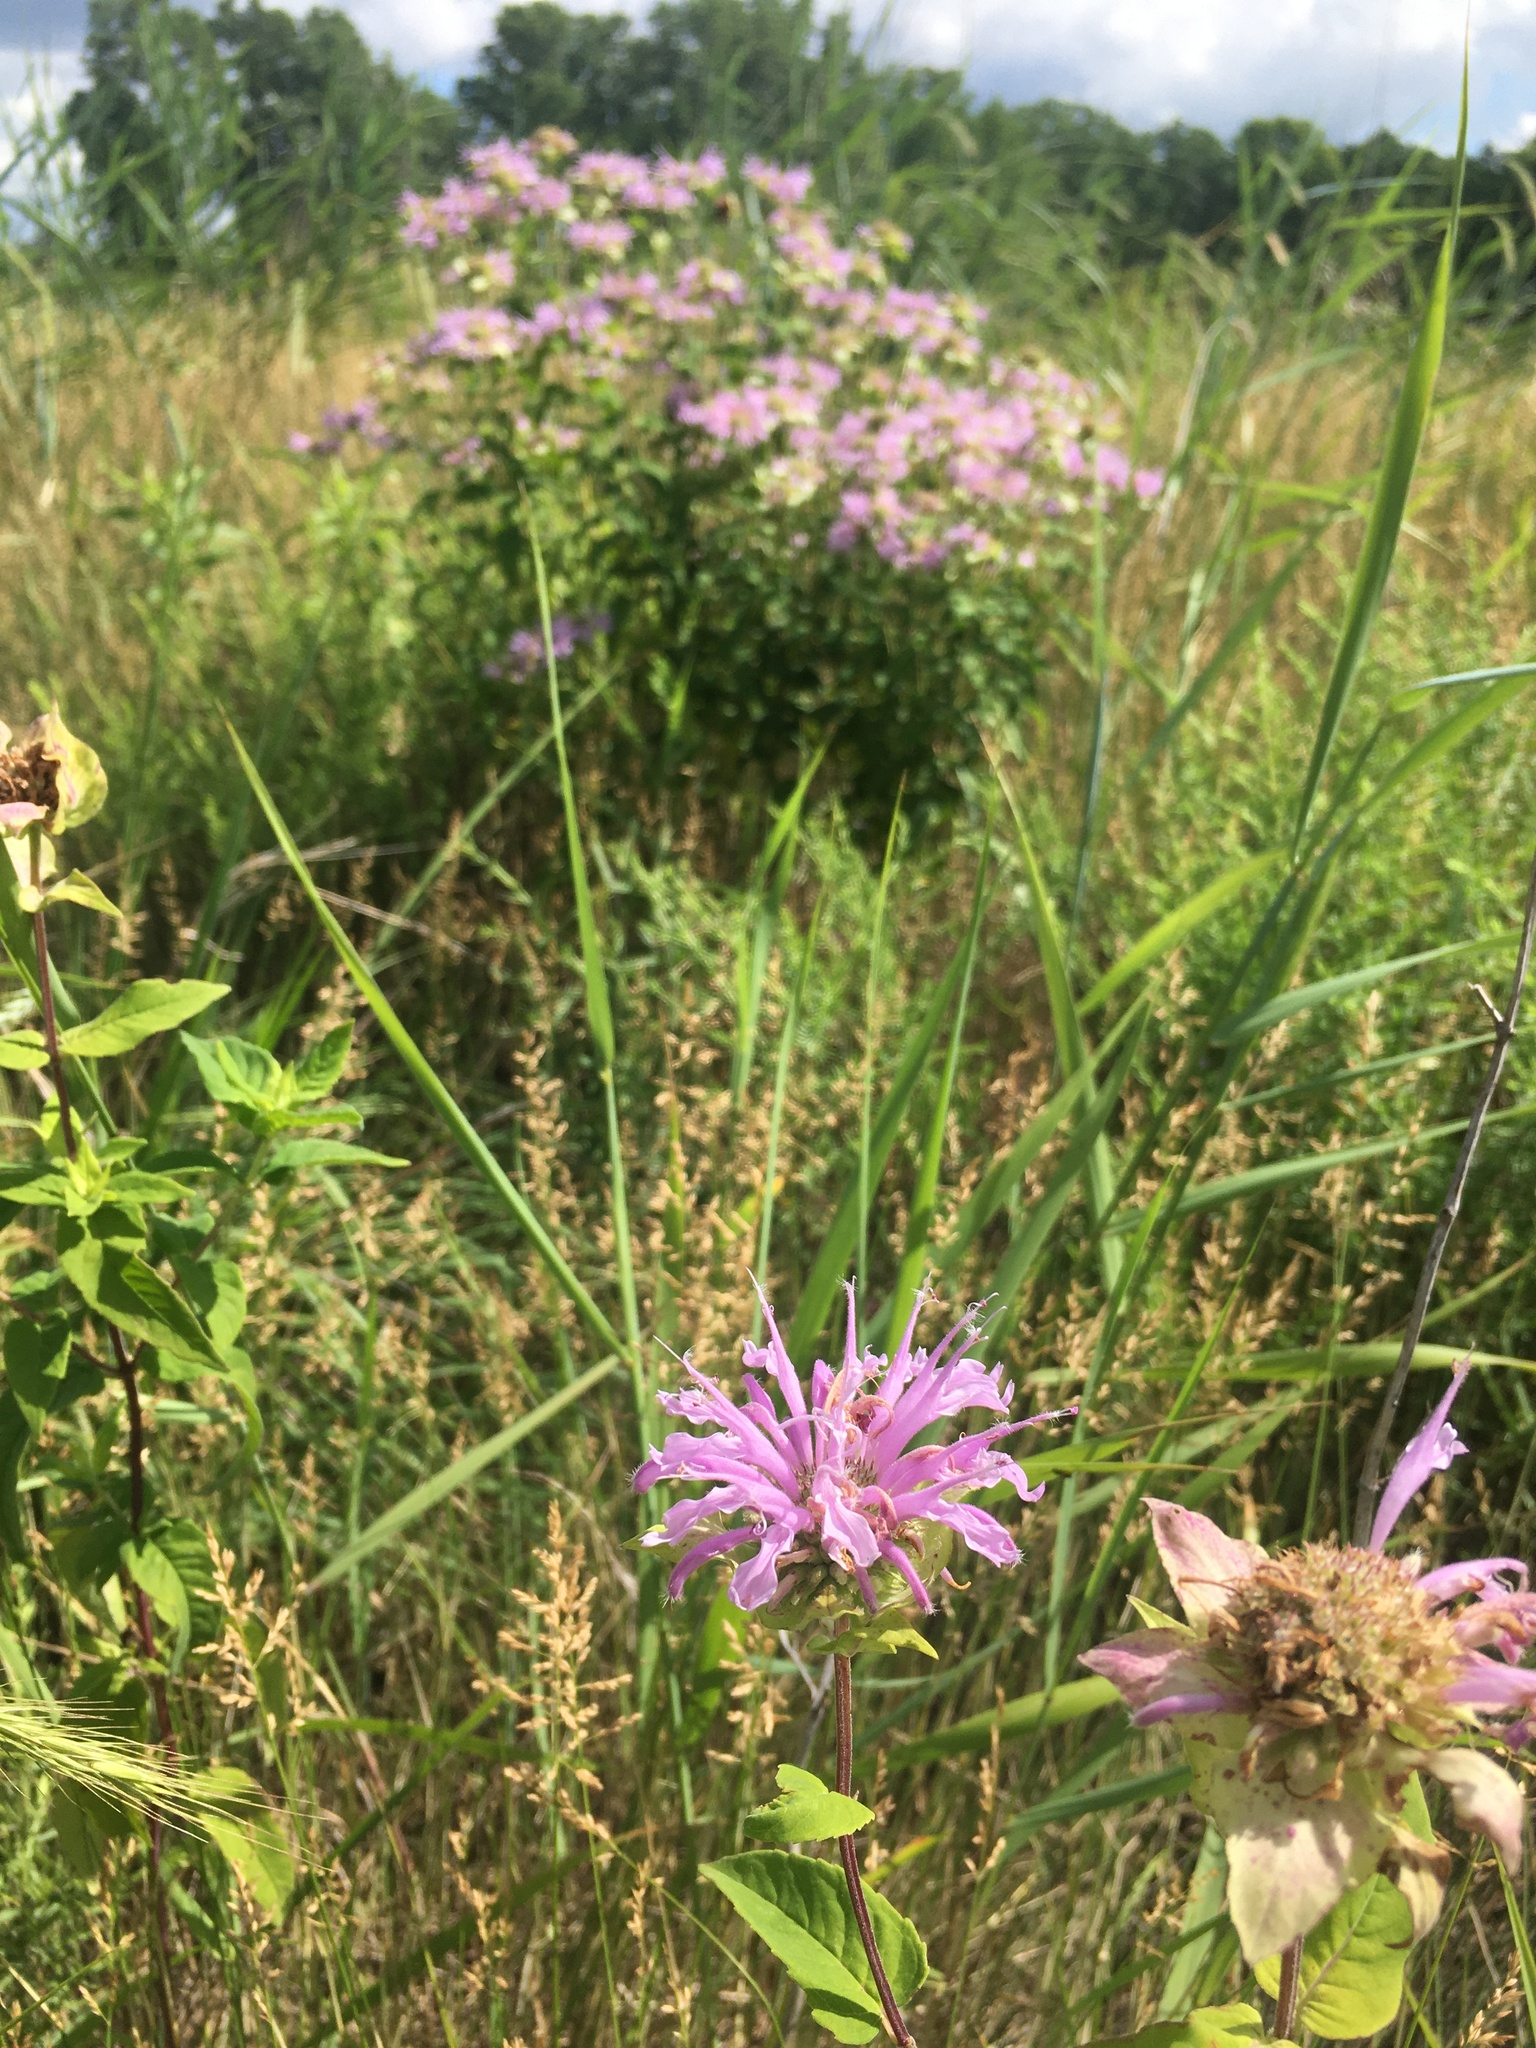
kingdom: Plantae
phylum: Tracheophyta
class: Magnoliopsida
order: Lamiales
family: Lamiaceae
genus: Monarda
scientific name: Monarda fistulosa
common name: Purple beebalm
